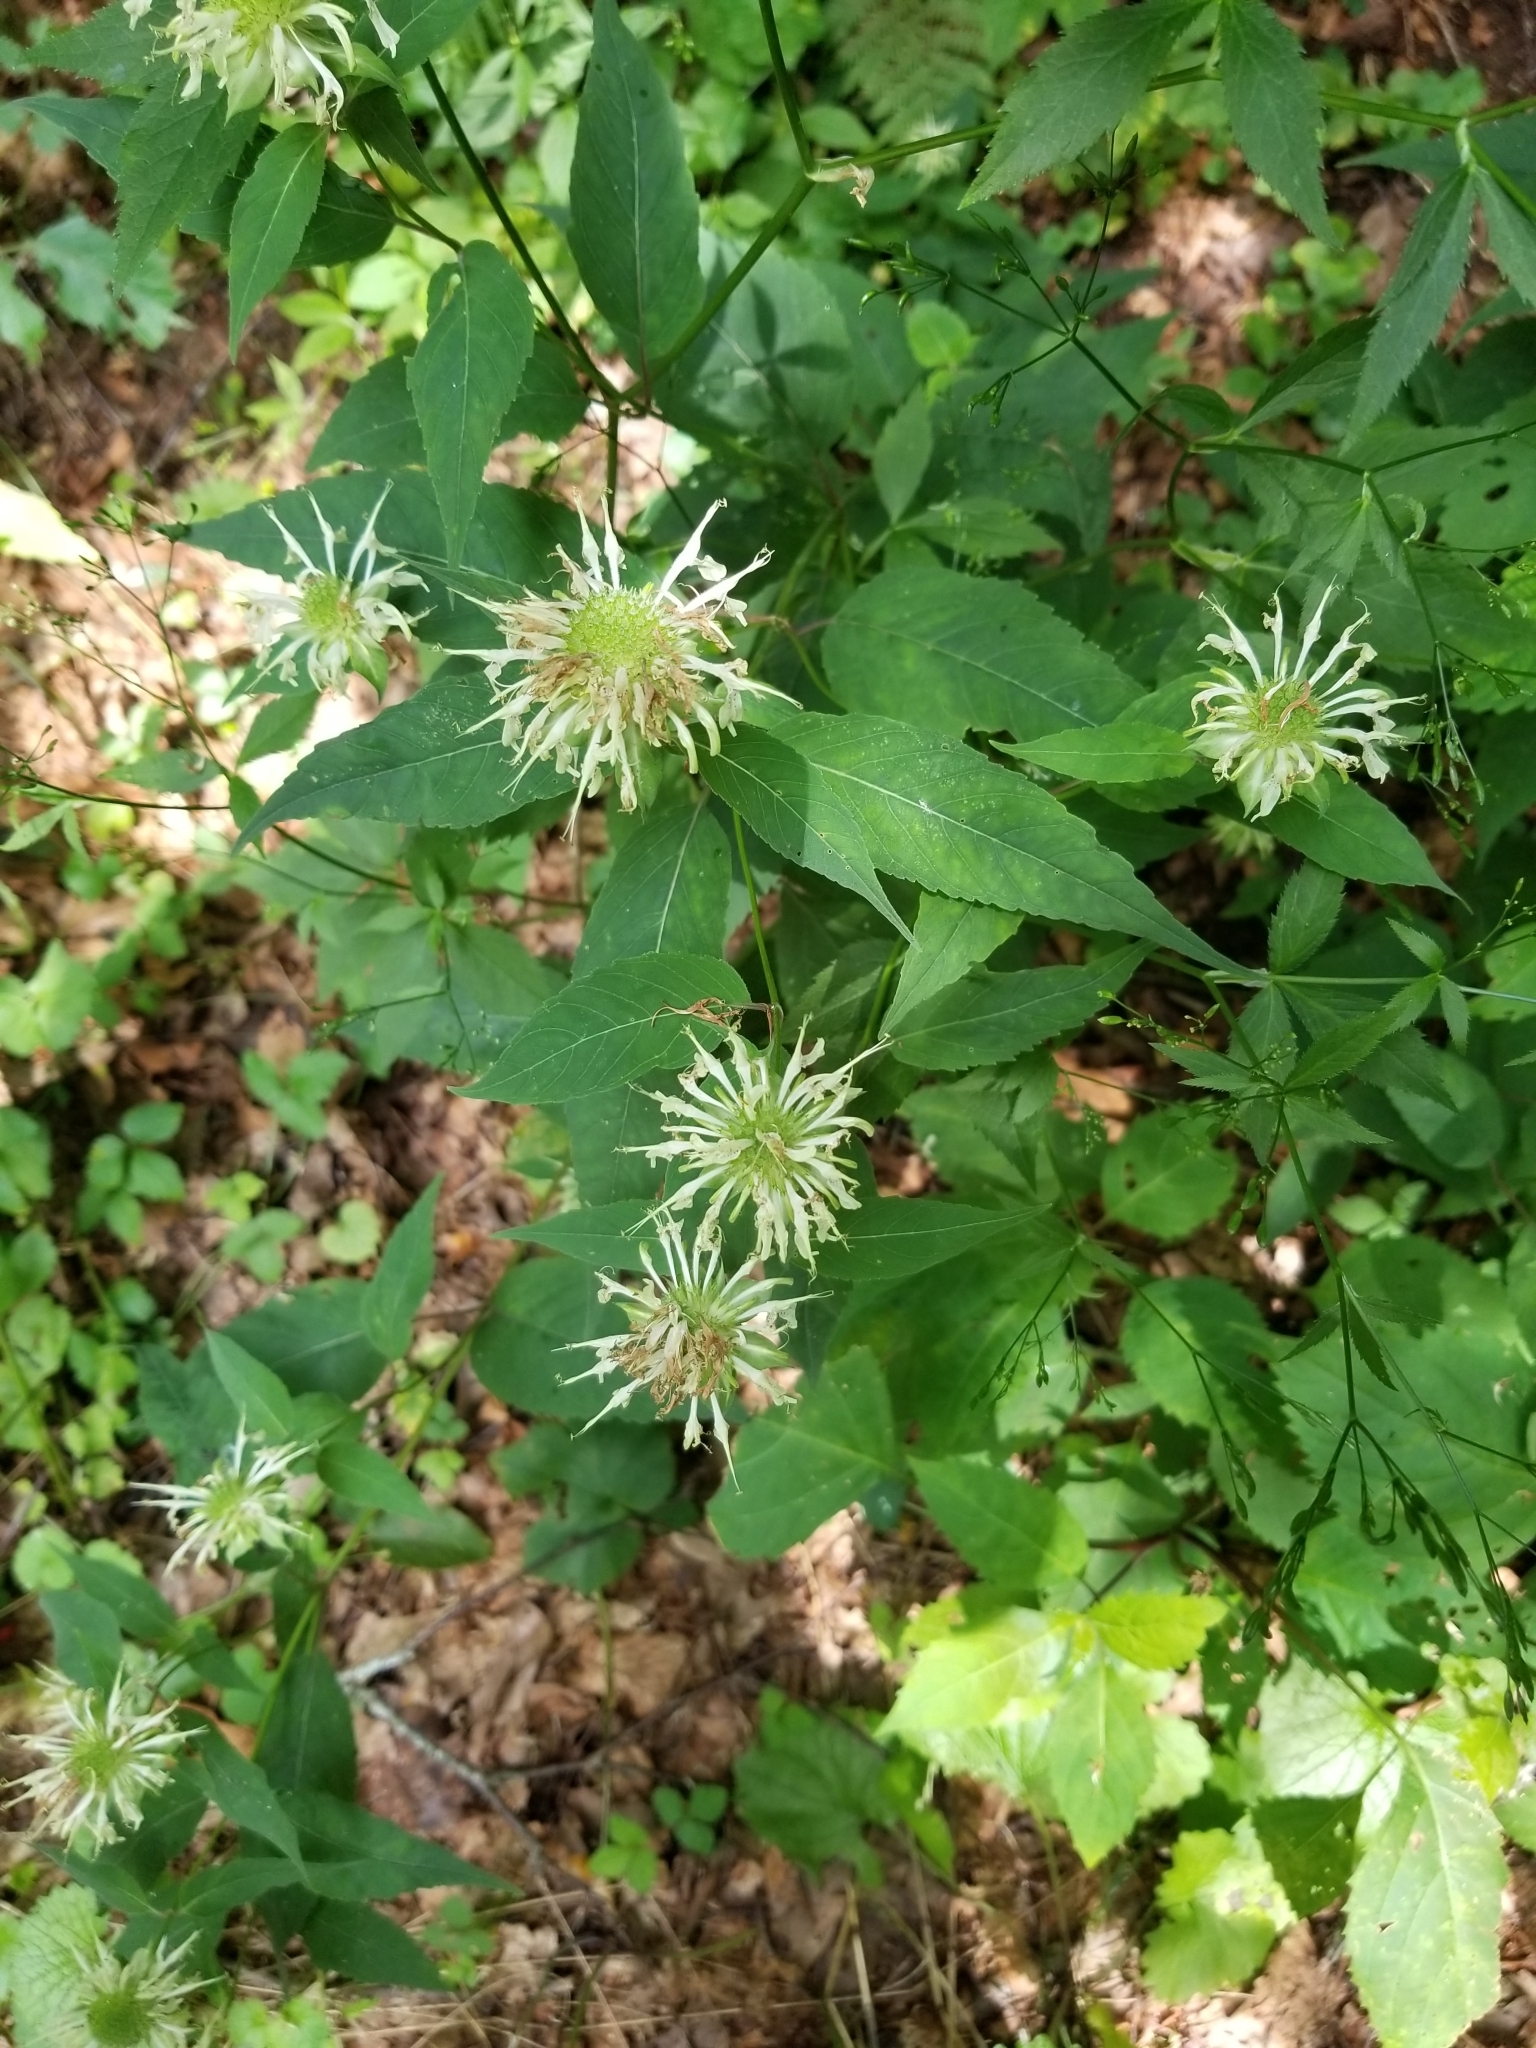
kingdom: Plantae
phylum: Tracheophyta
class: Magnoliopsida
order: Lamiales
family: Lamiaceae
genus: Monarda
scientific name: Monarda clinopodia
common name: Basil beebalm
